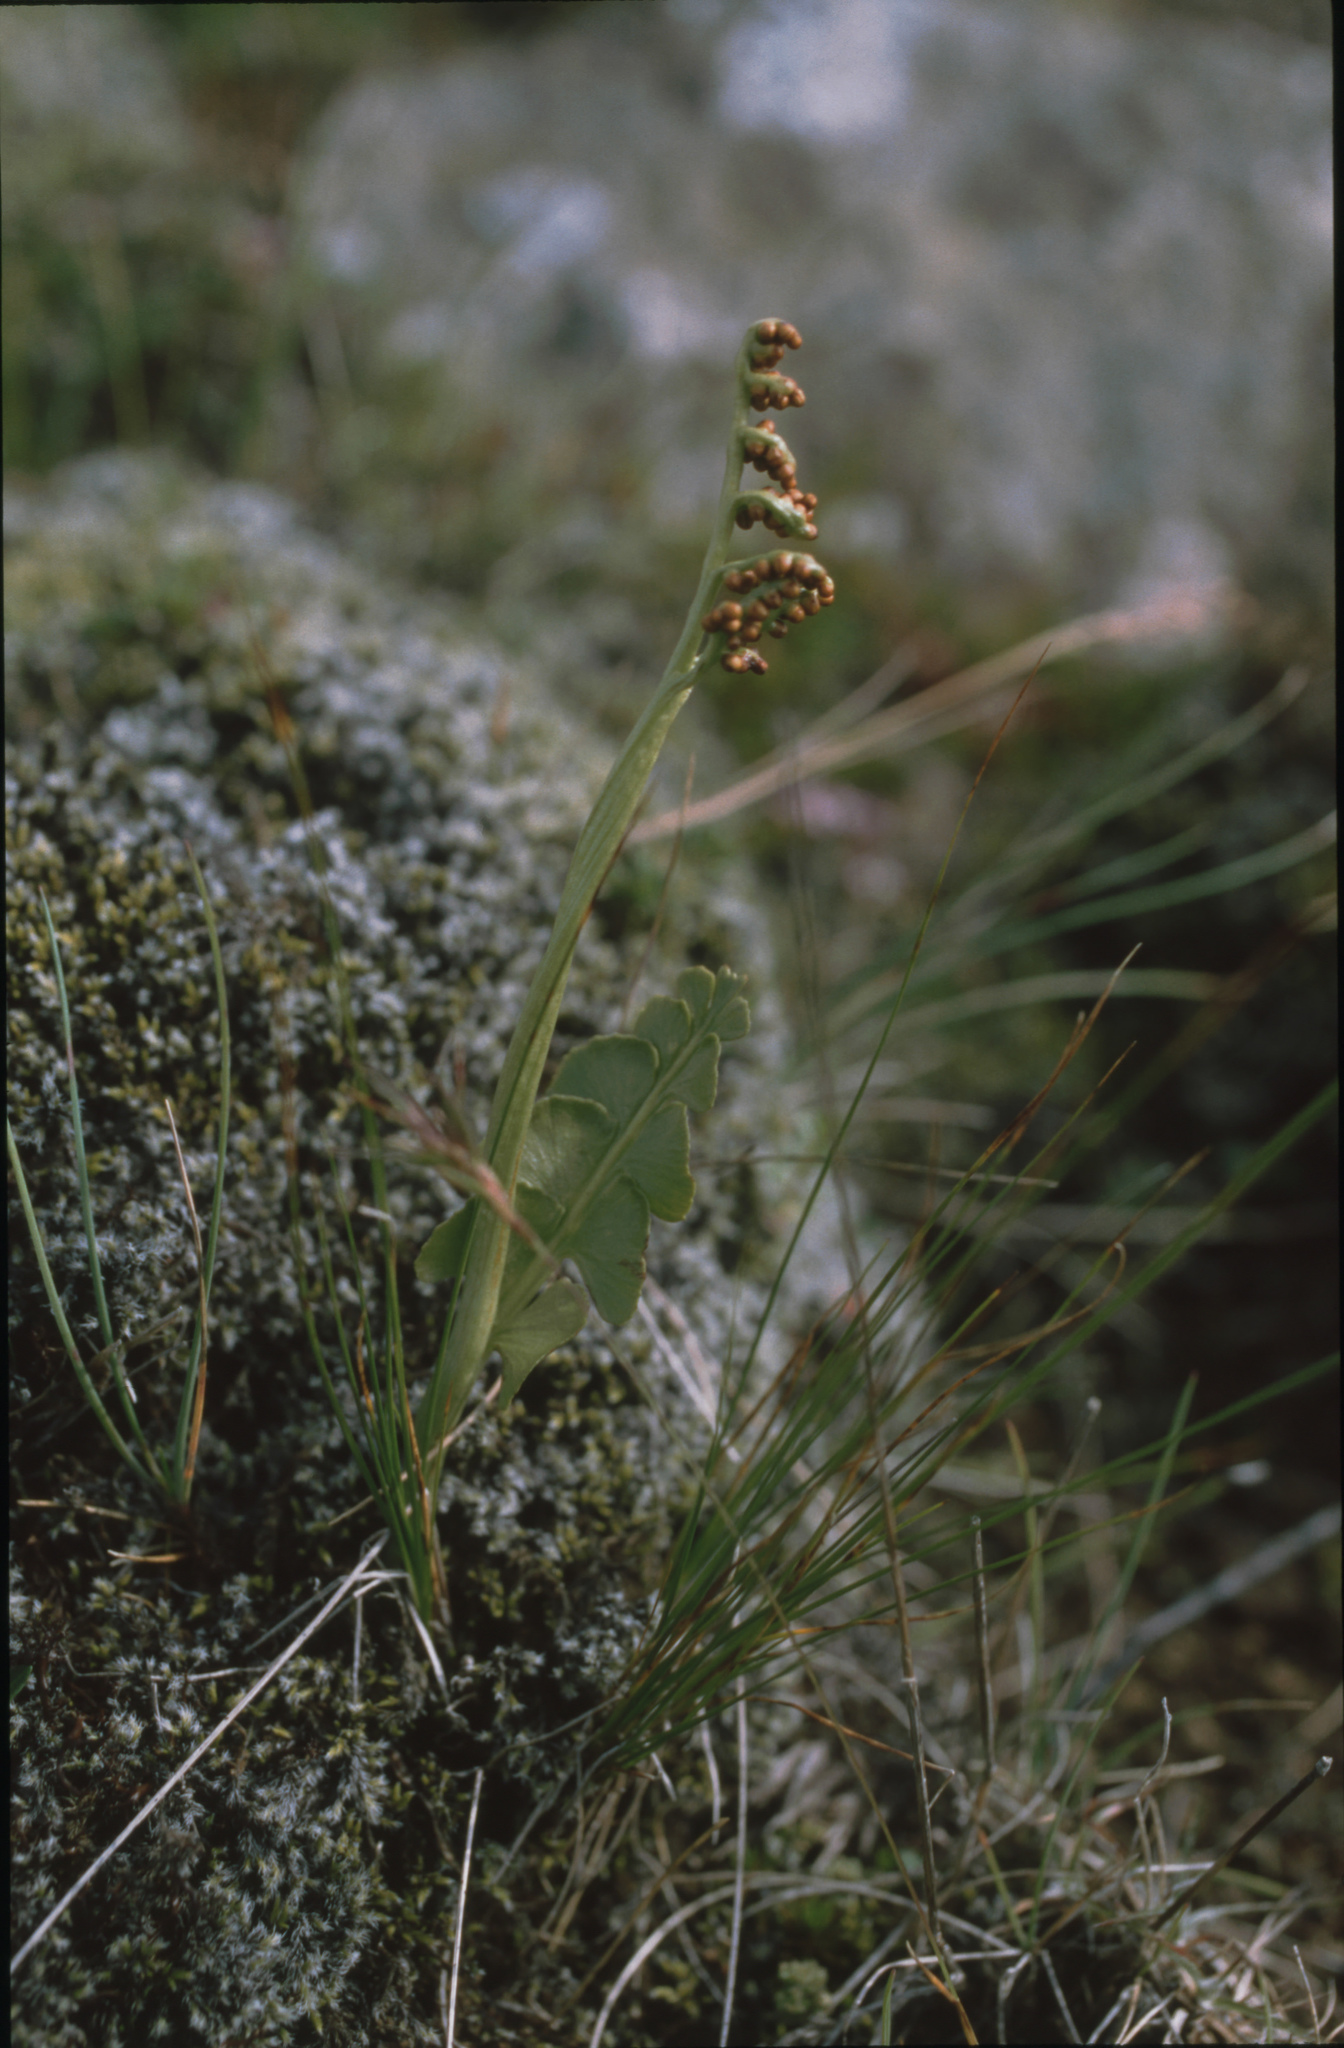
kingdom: Plantae
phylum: Tracheophyta
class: Polypodiopsida
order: Ophioglossales
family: Ophioglossaceae
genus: Botrychium
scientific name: Botrychium lunaria
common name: Moonwort
